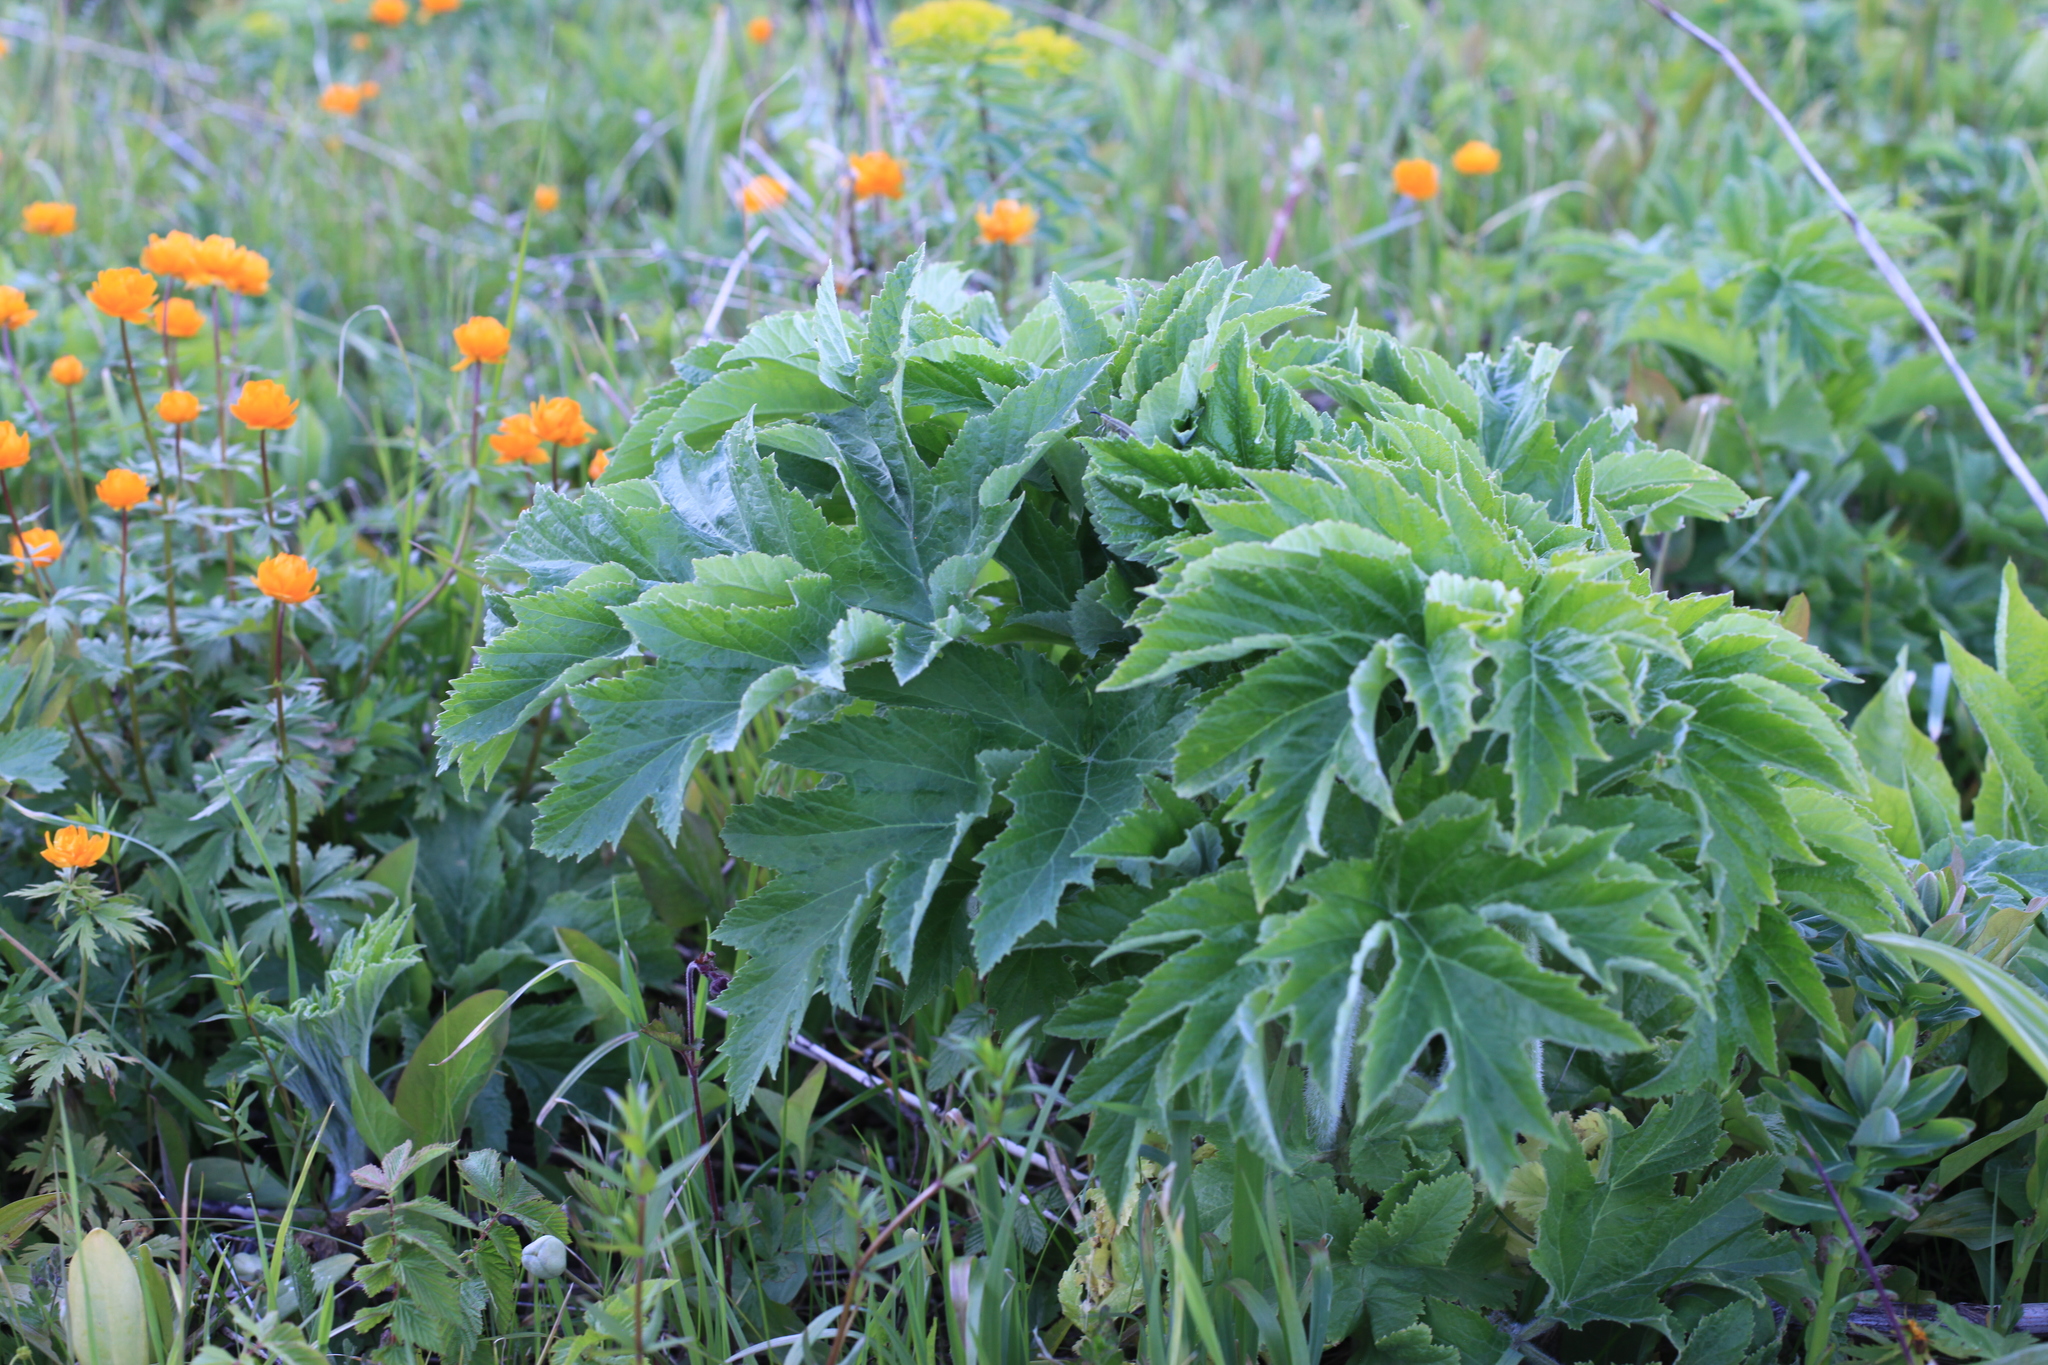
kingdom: Plantae
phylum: Tracheophyta
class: Magnoliopsida
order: Apiales
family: Apiaceae
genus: Heracleum
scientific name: Heracleum dissectum
